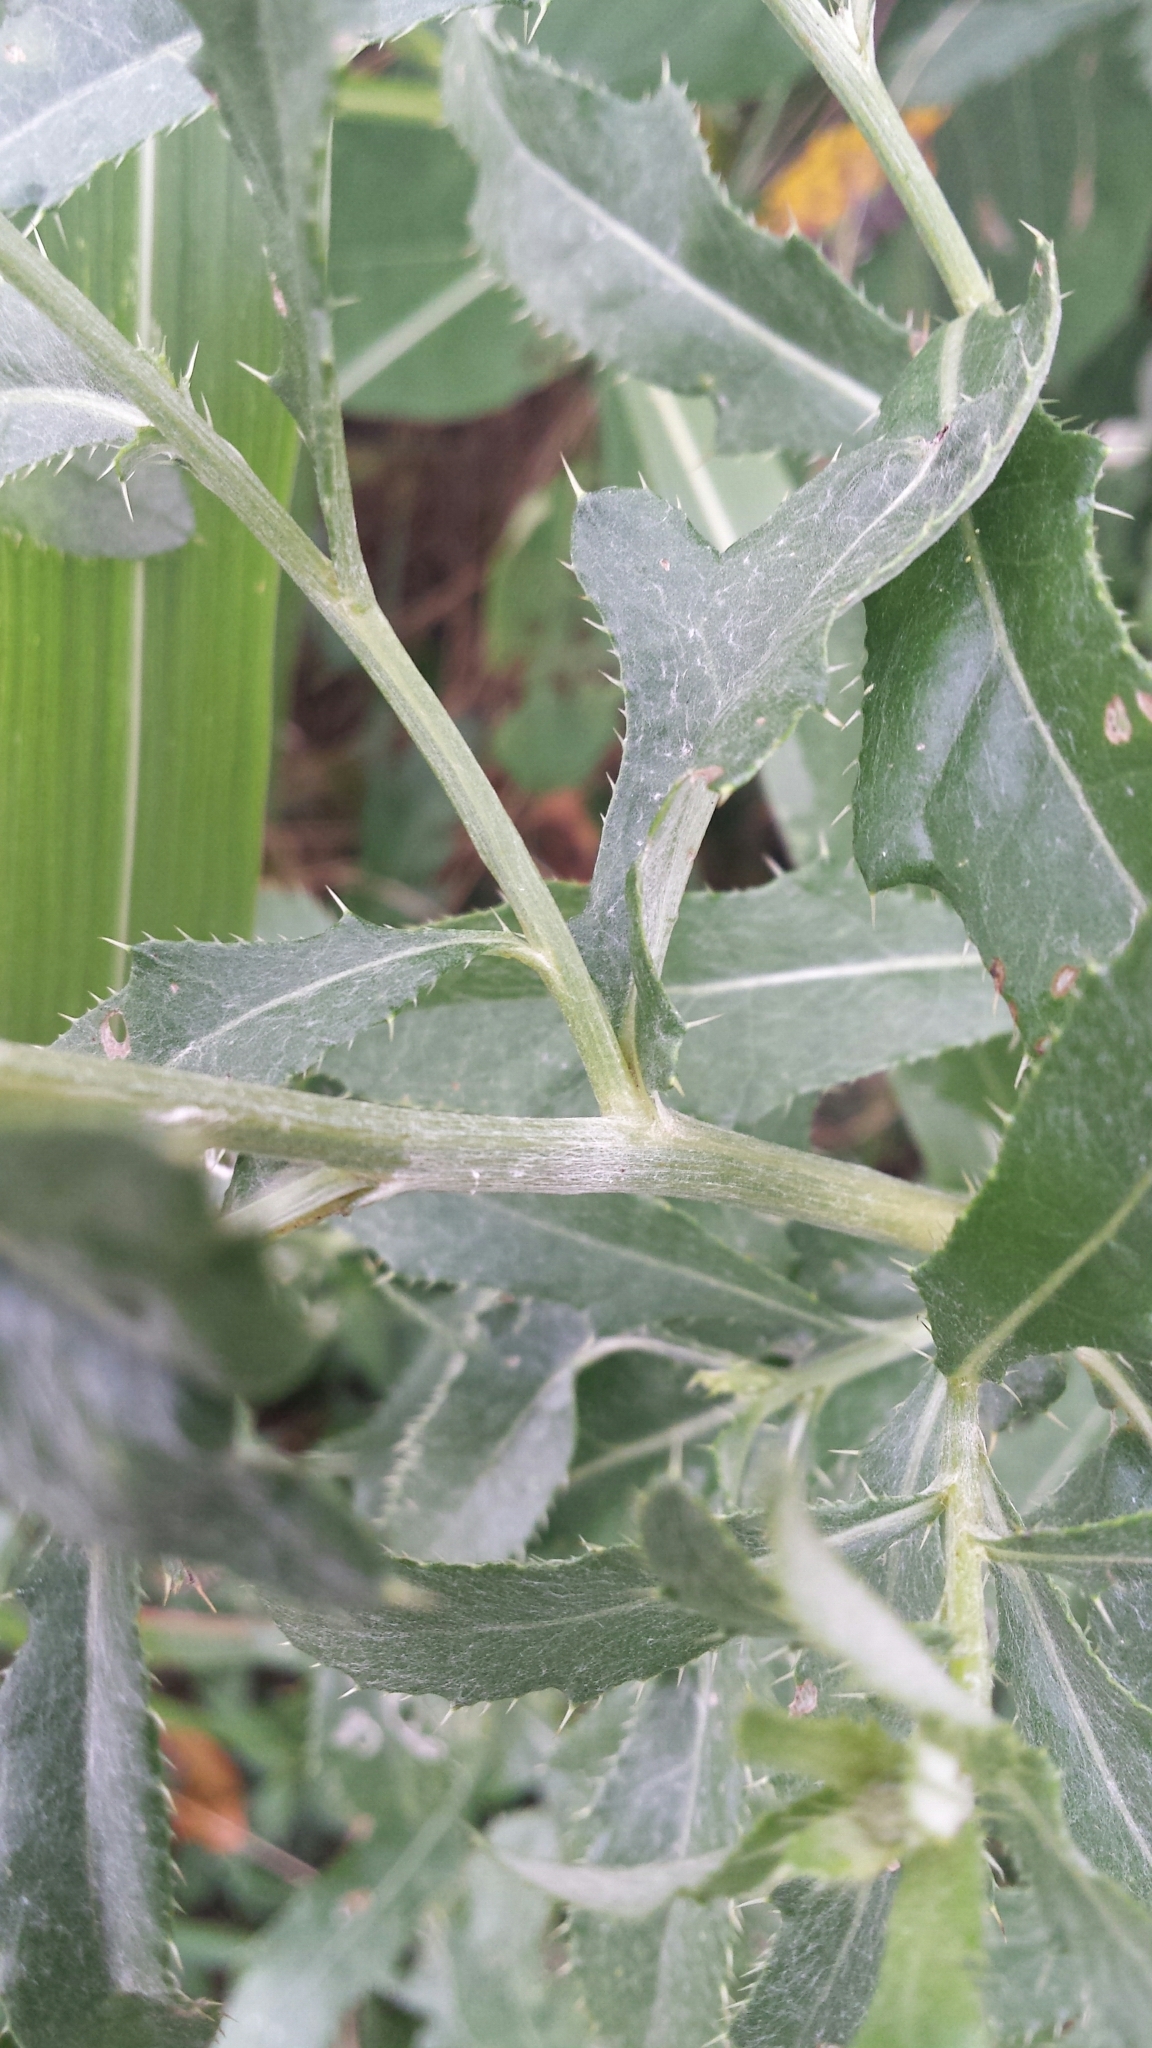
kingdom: Plantae
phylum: Tracheophyta
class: Magnoliopsida
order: Asterales
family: Asteraceae
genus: Cirsium
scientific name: Cirsium arvense
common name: Creeping thistle
